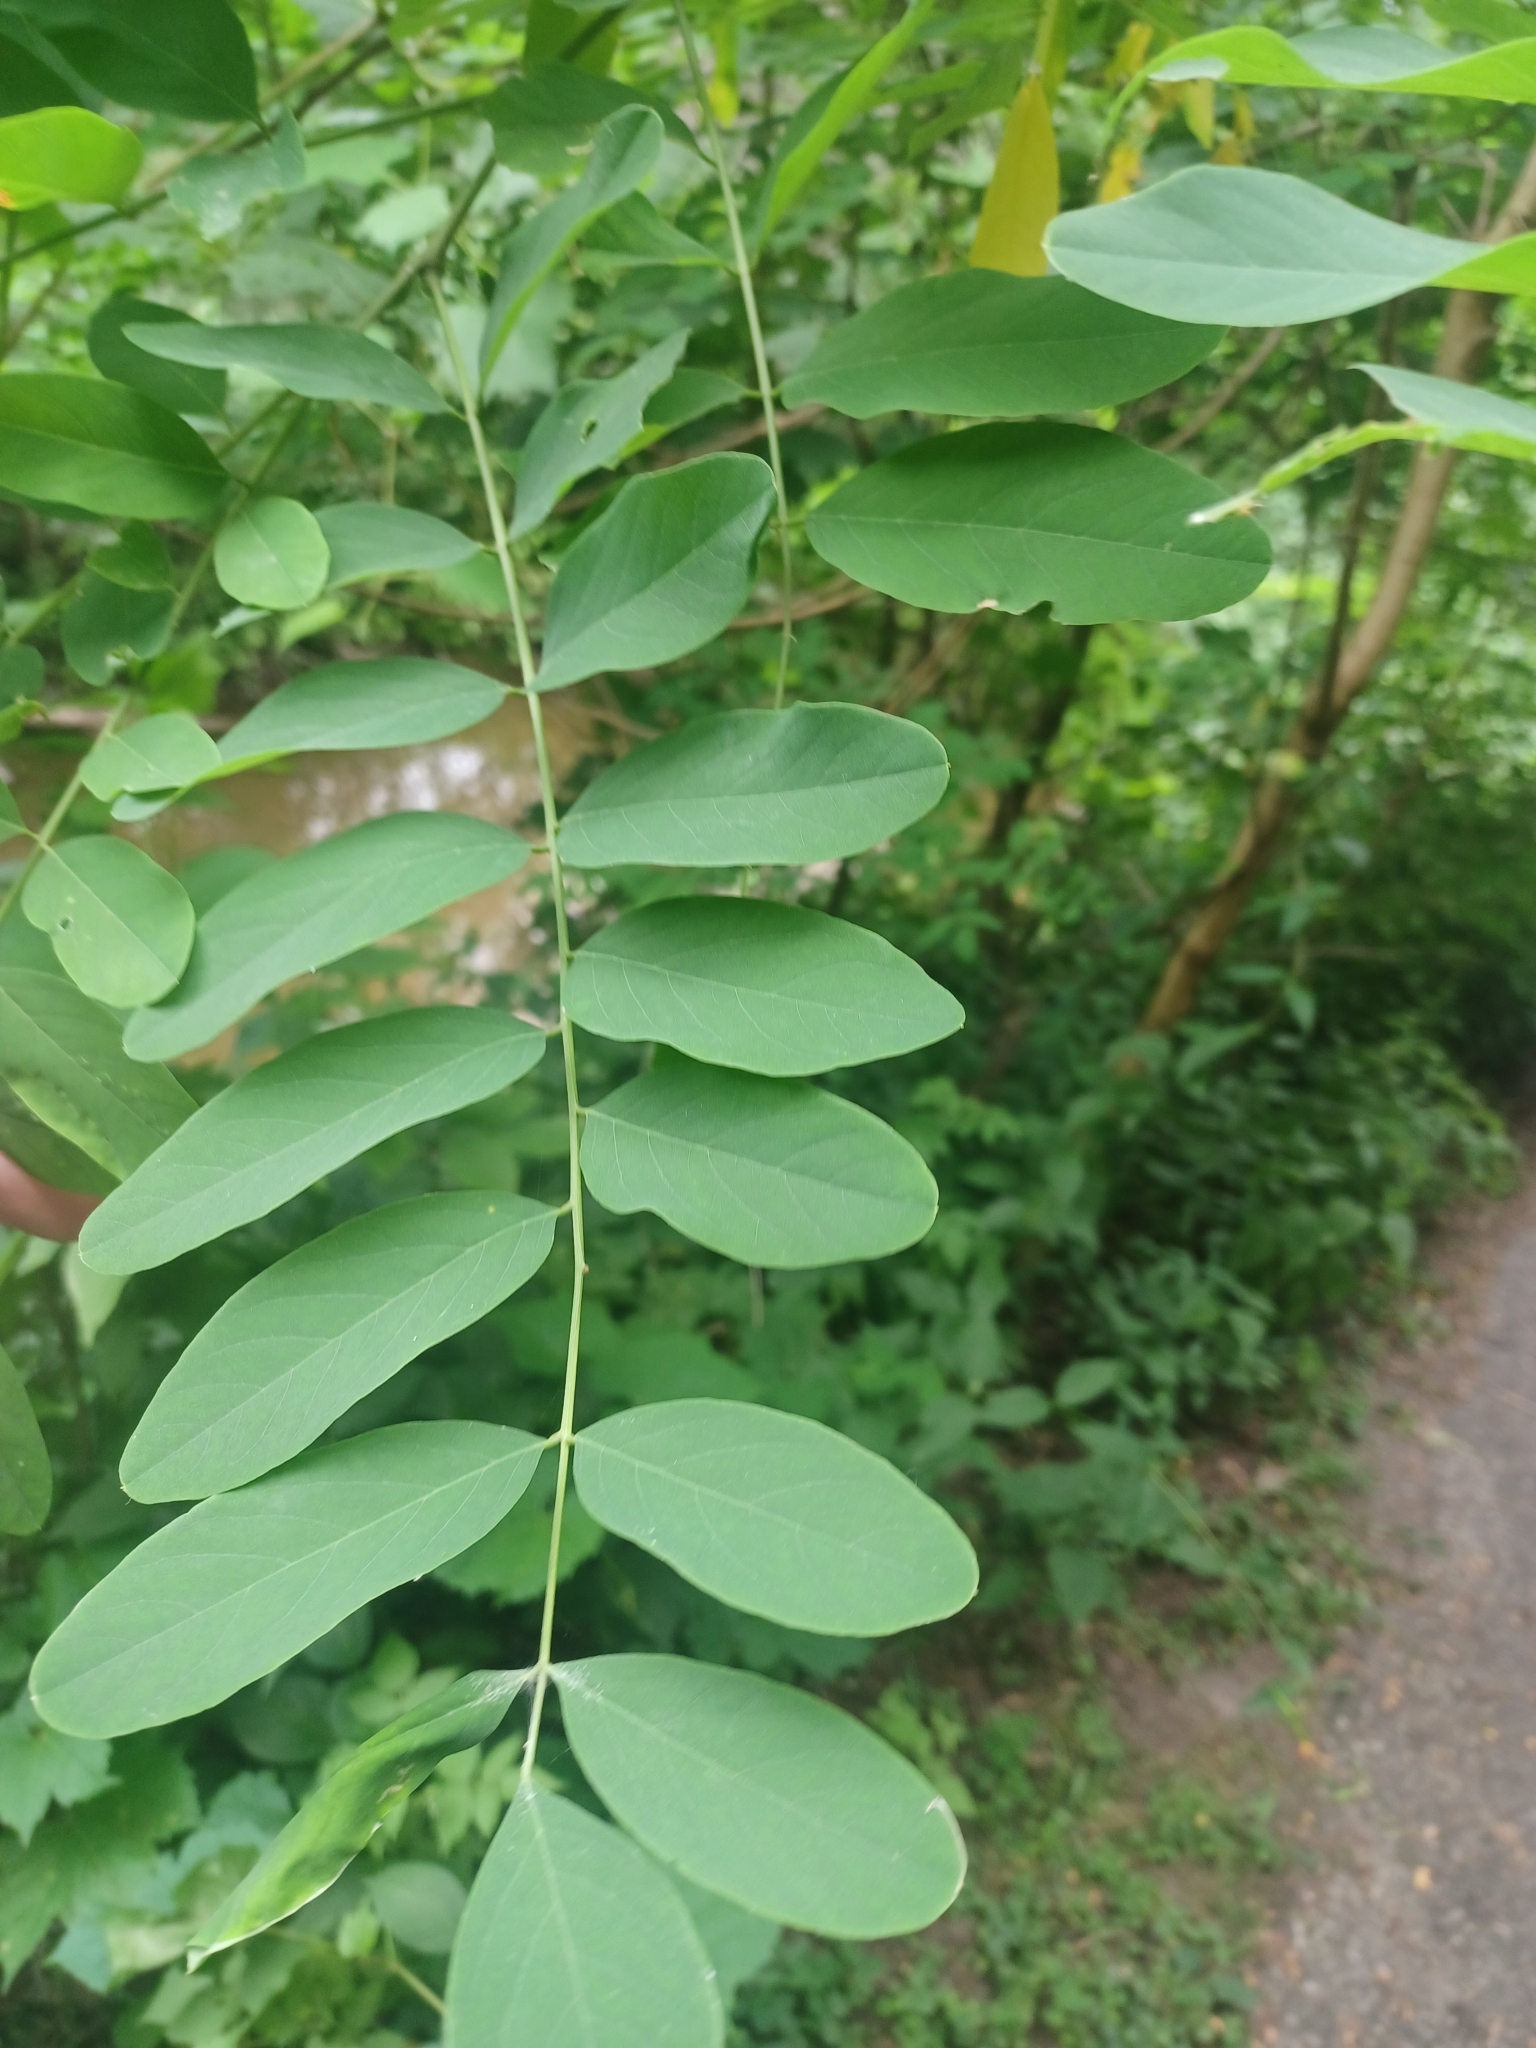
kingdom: Plantae
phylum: Tracheophyta
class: Magnoliopsida
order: Fabales
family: Fabaceae
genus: Robinia
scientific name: Robinia pseudoacacia
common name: Black locust
